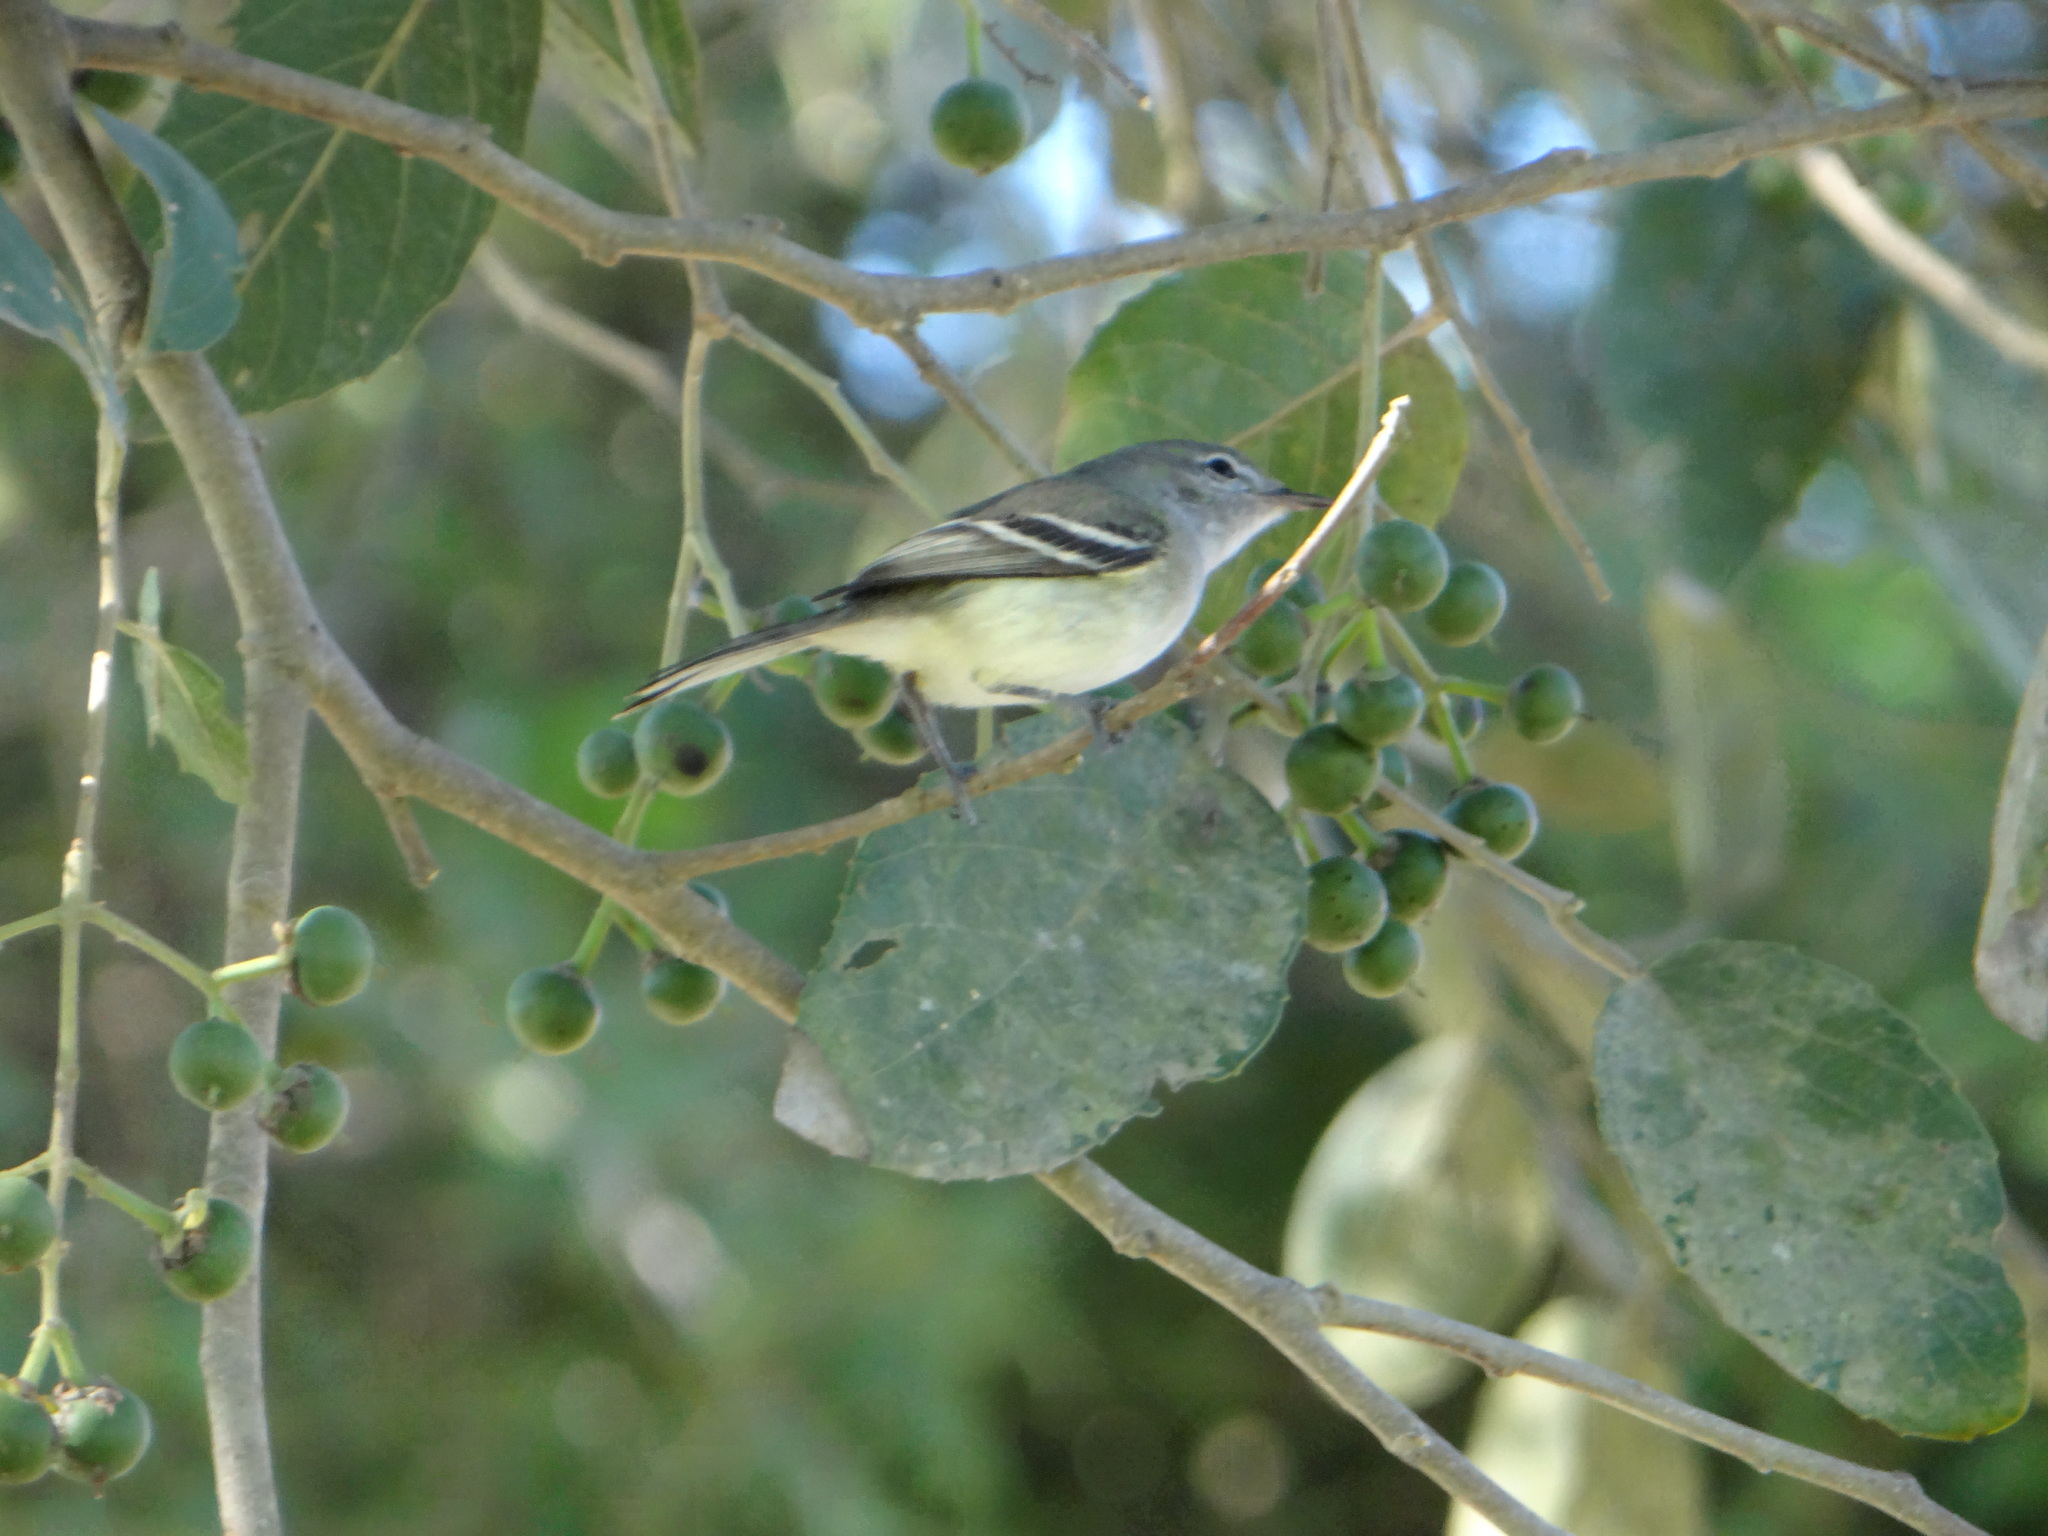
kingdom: Animalia
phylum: Chordata
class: Aves
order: Passeriformes
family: Tyrannidae
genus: Inezia
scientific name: Inezia inornata
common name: Plain inezia
